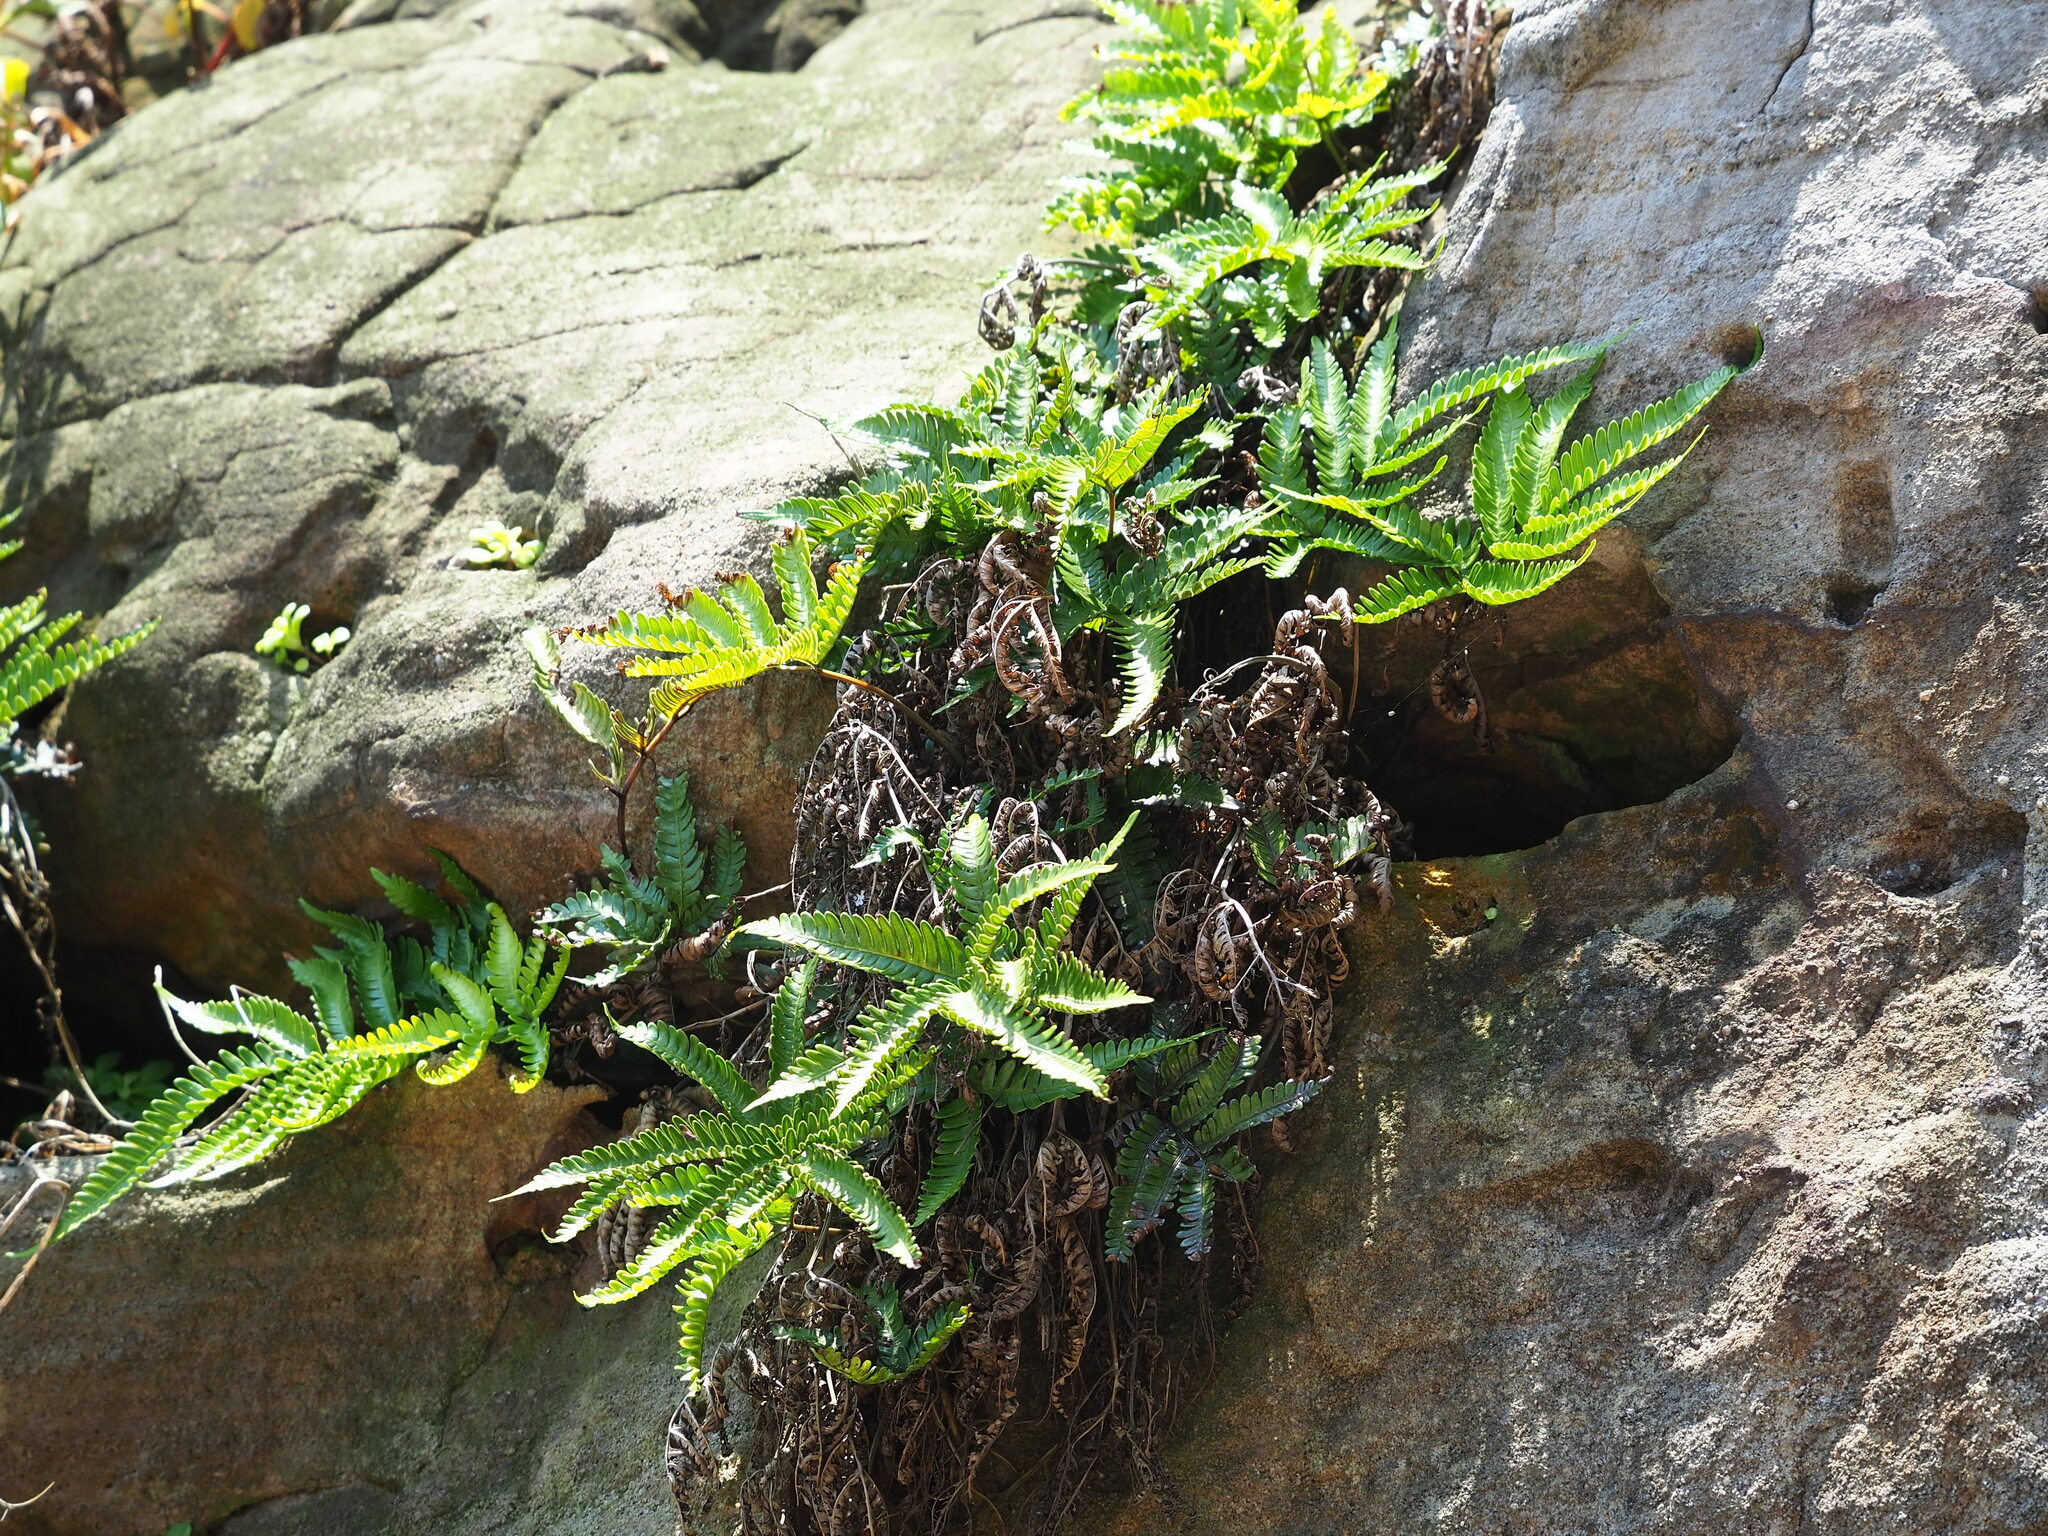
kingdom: Plantae
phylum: Tracheophyta
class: Polypodiopsida
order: Polypodiales
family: Pteridaceae
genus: Pteris
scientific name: Pteris minor
